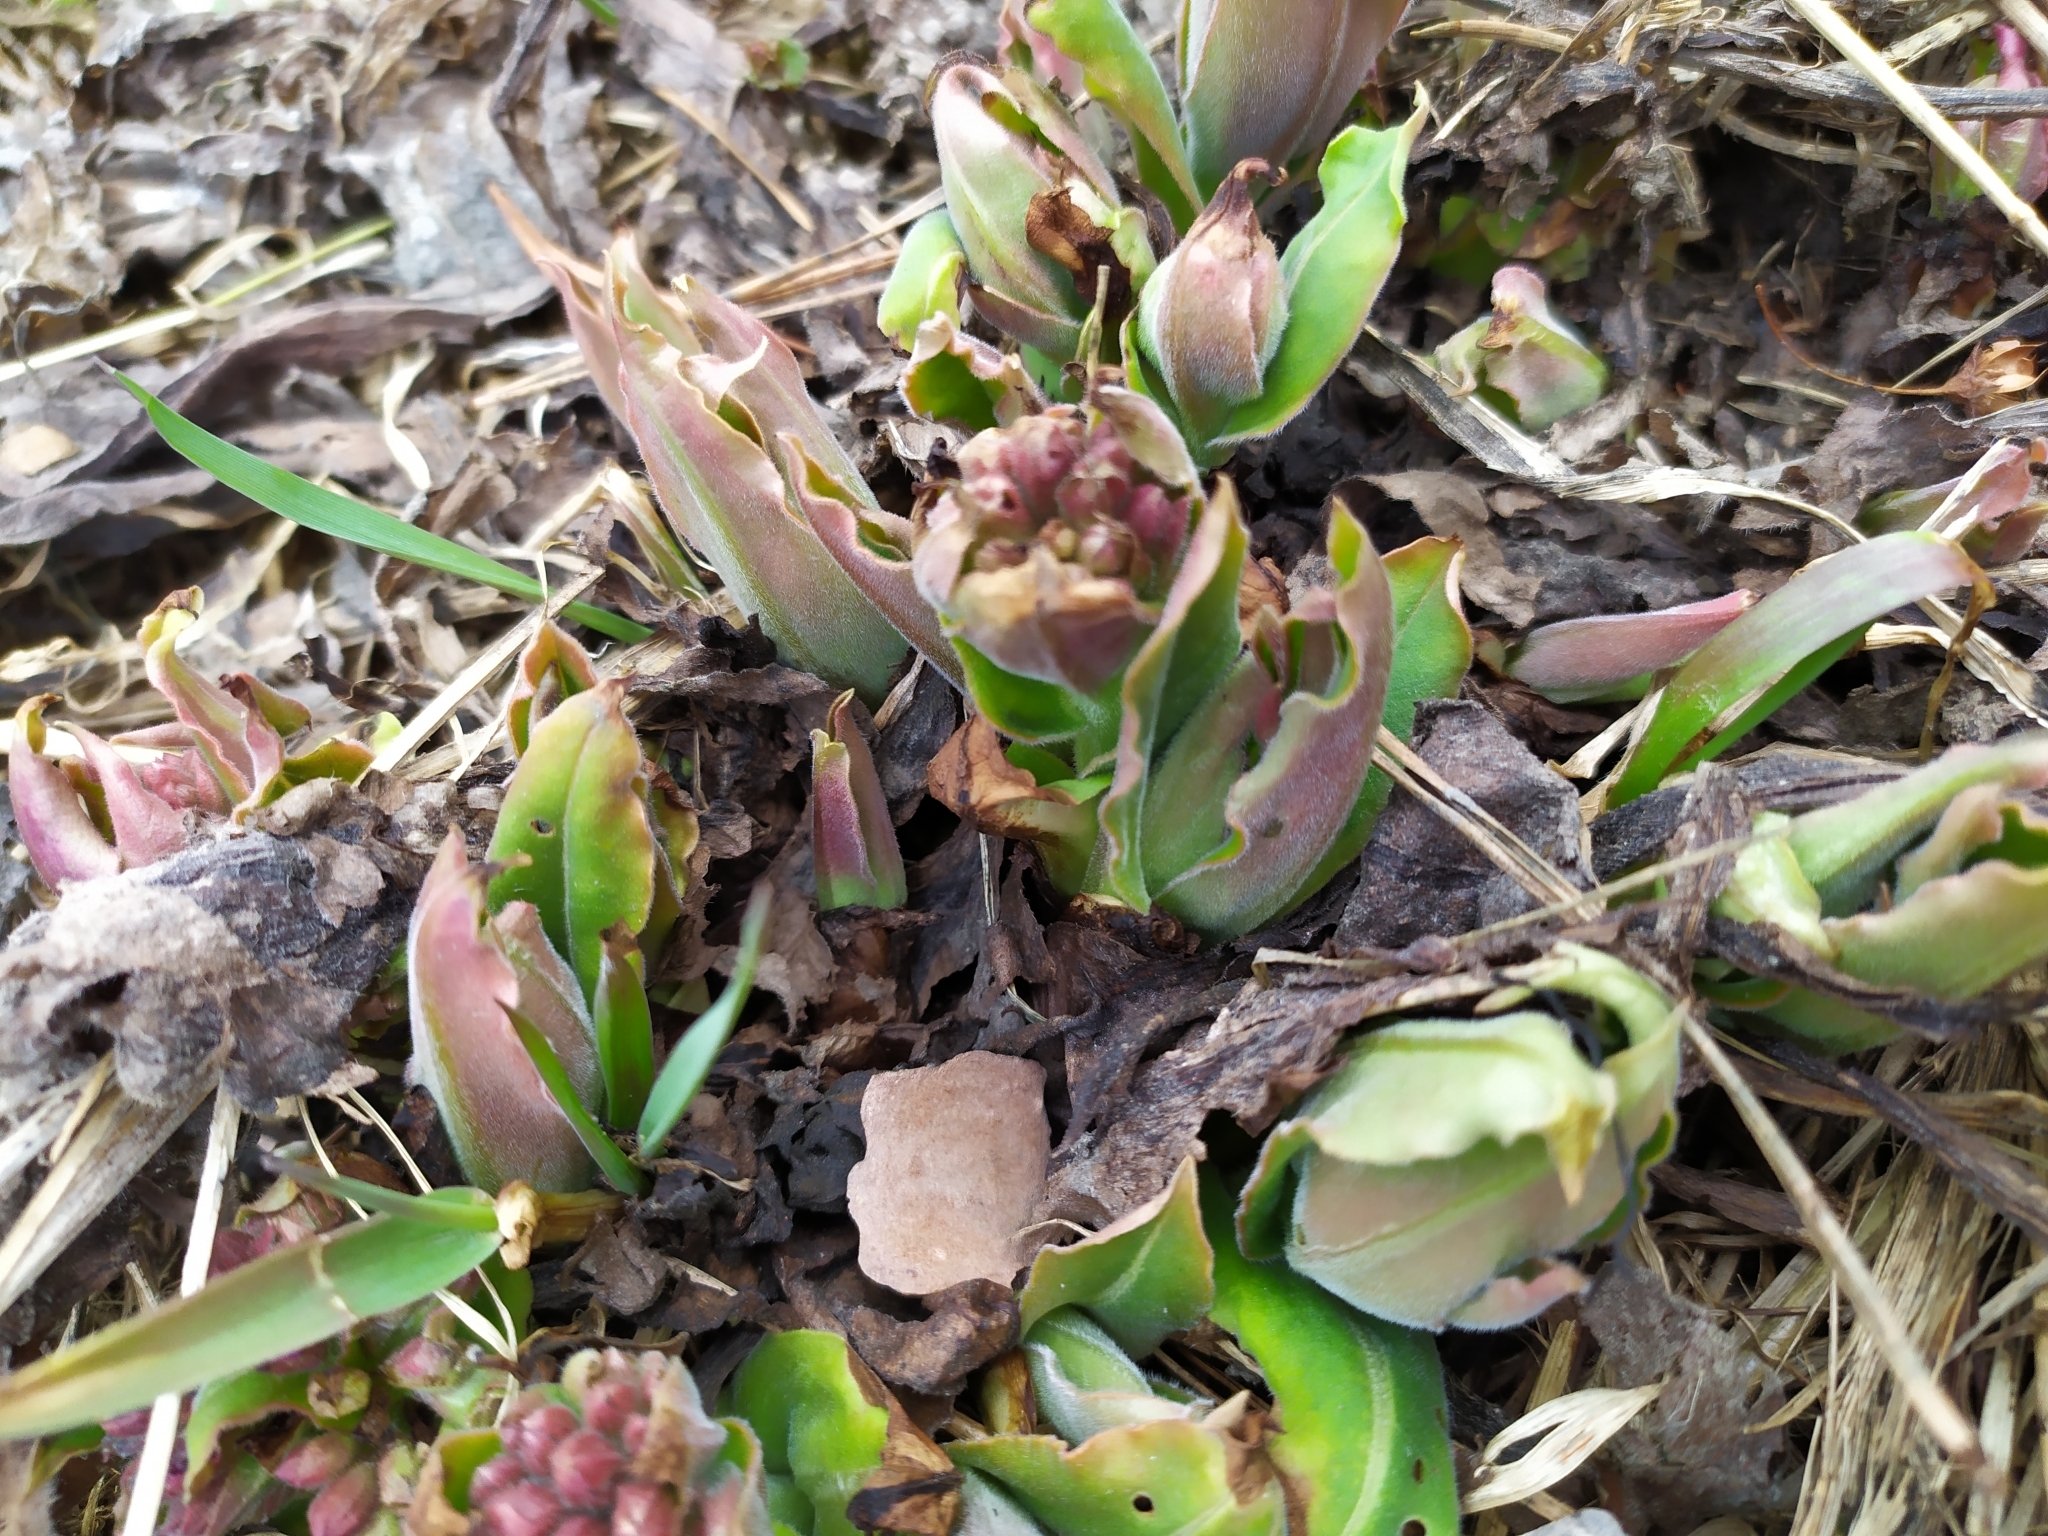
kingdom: Plantae
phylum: Tracheophyta
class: Magnoliopsida
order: Boraginales
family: Boraginaceae
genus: Pulmonaria
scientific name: Pulmonaria mollis
